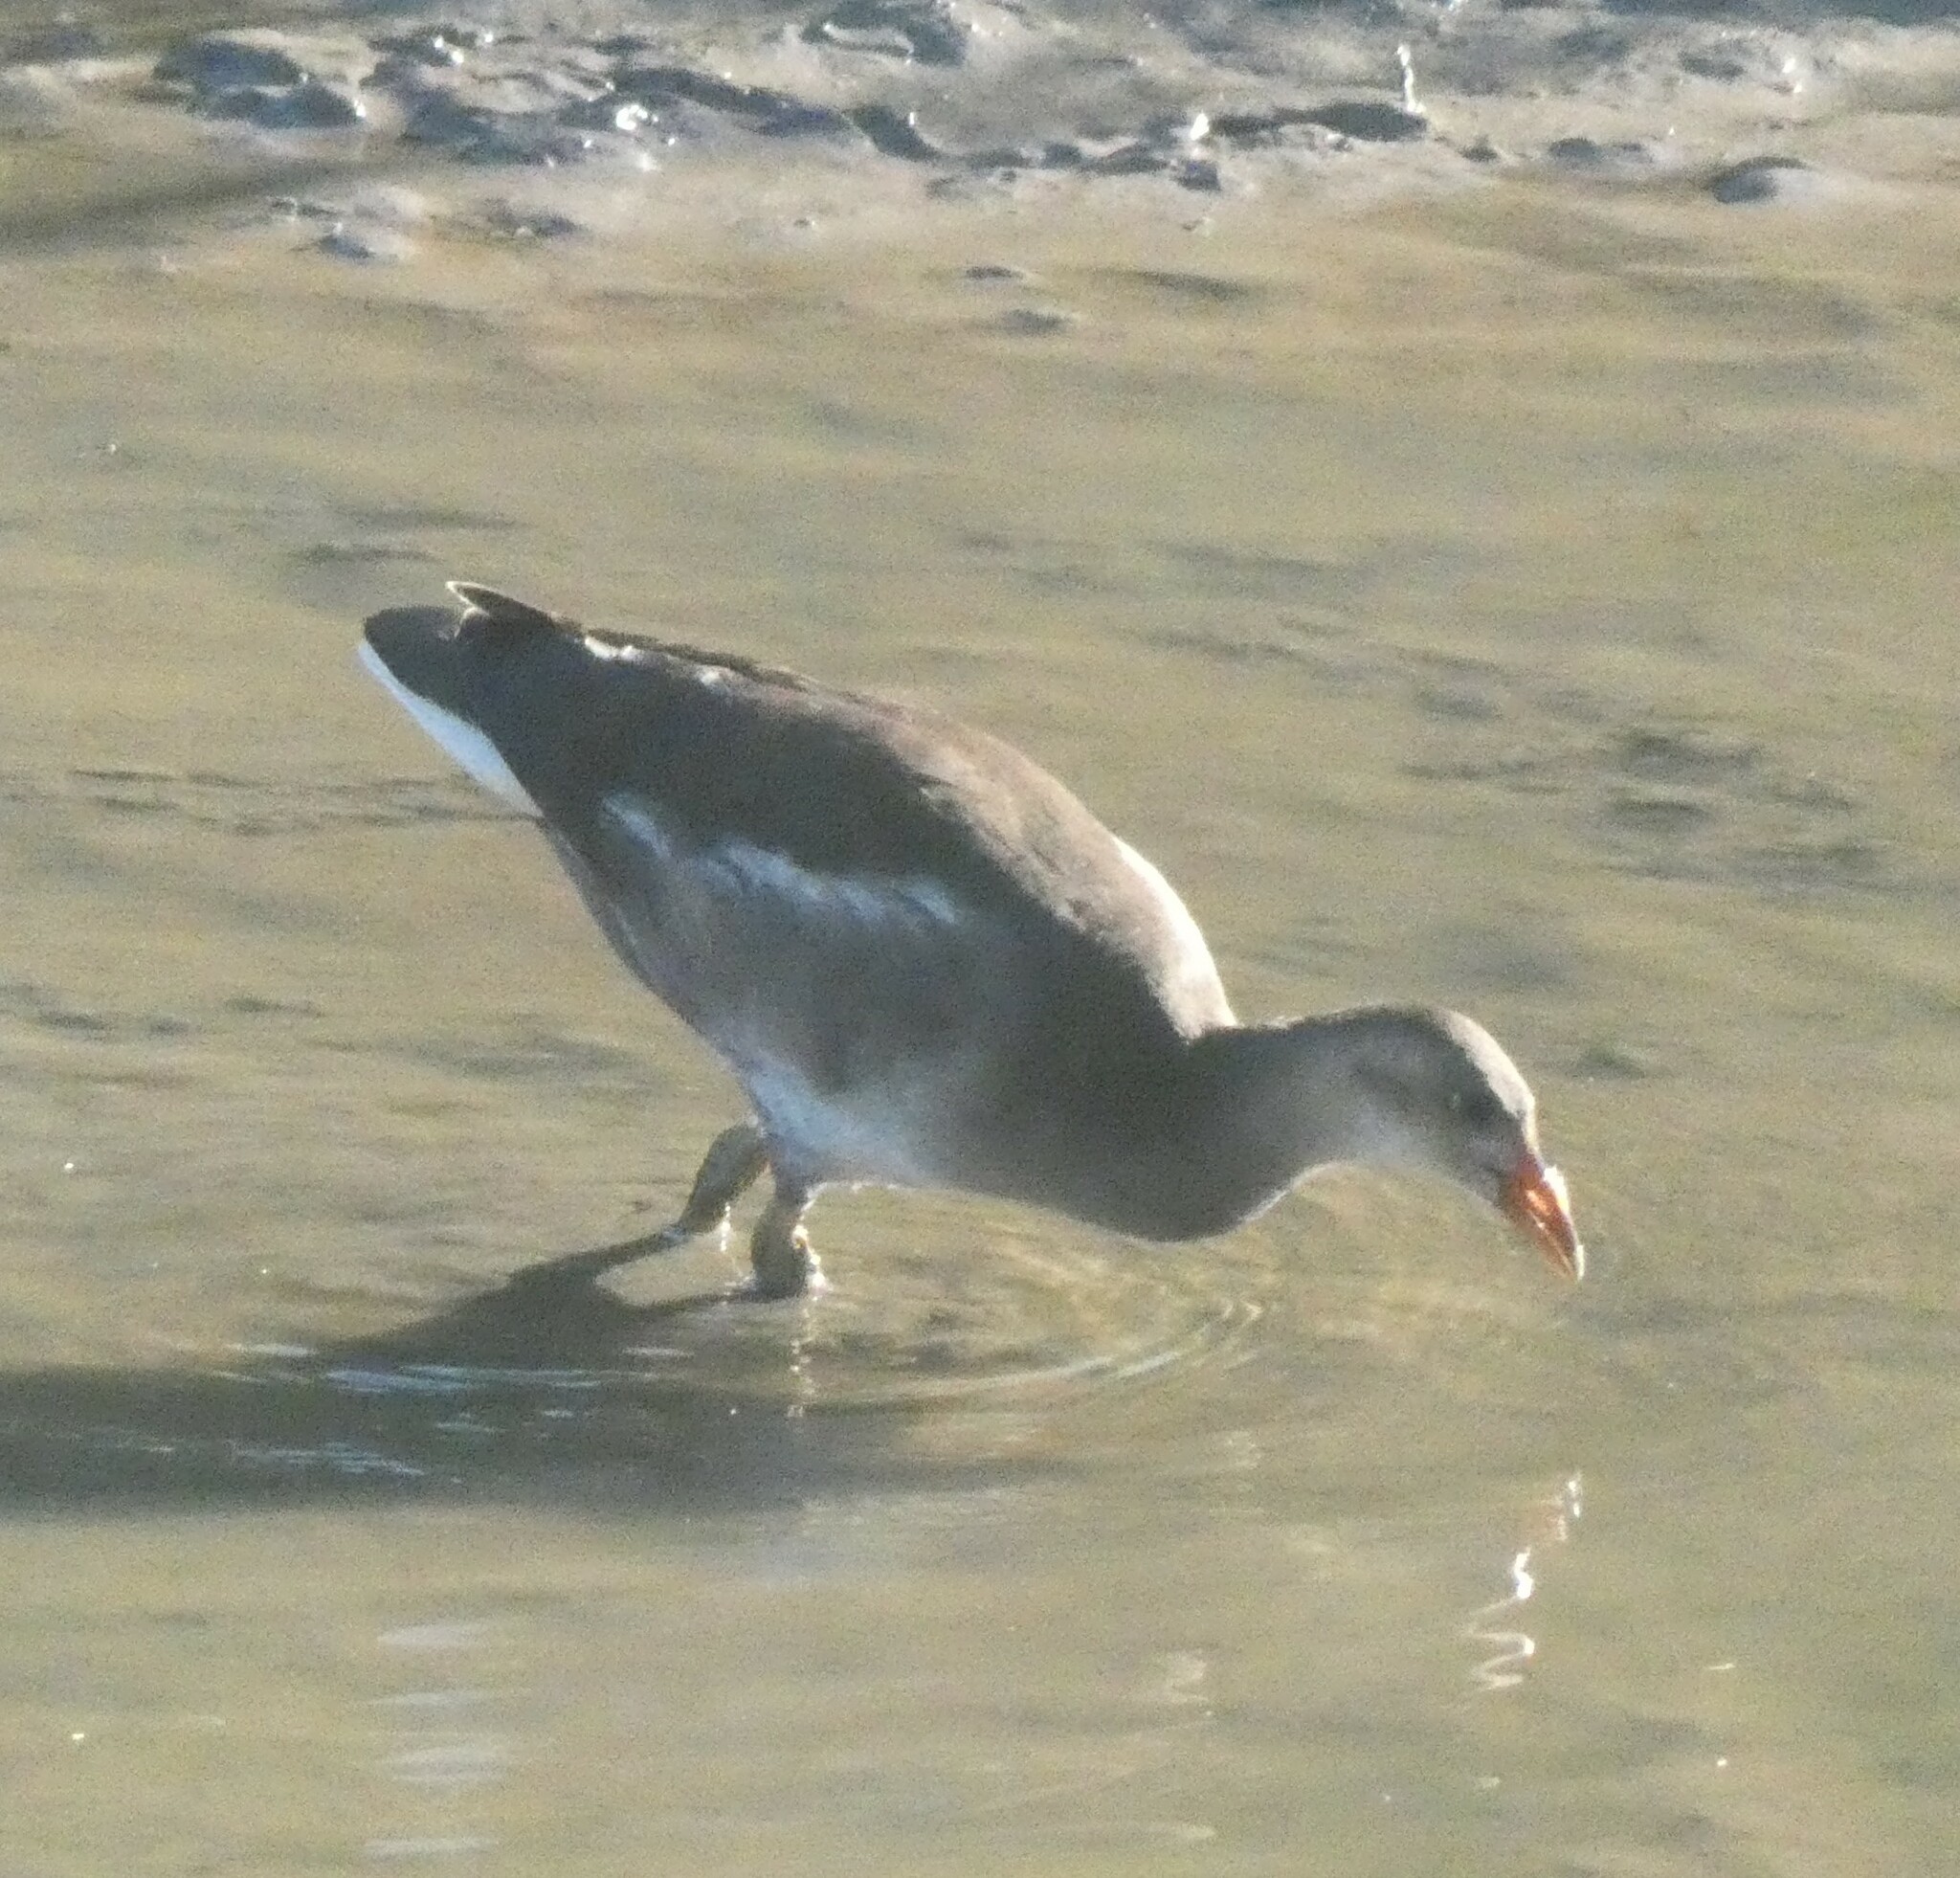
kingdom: Animalia
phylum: Chordata
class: Aves
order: Gruiformes
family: Rallidae
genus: Gallinula
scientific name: Gallinula chloropus
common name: Common moorhen
